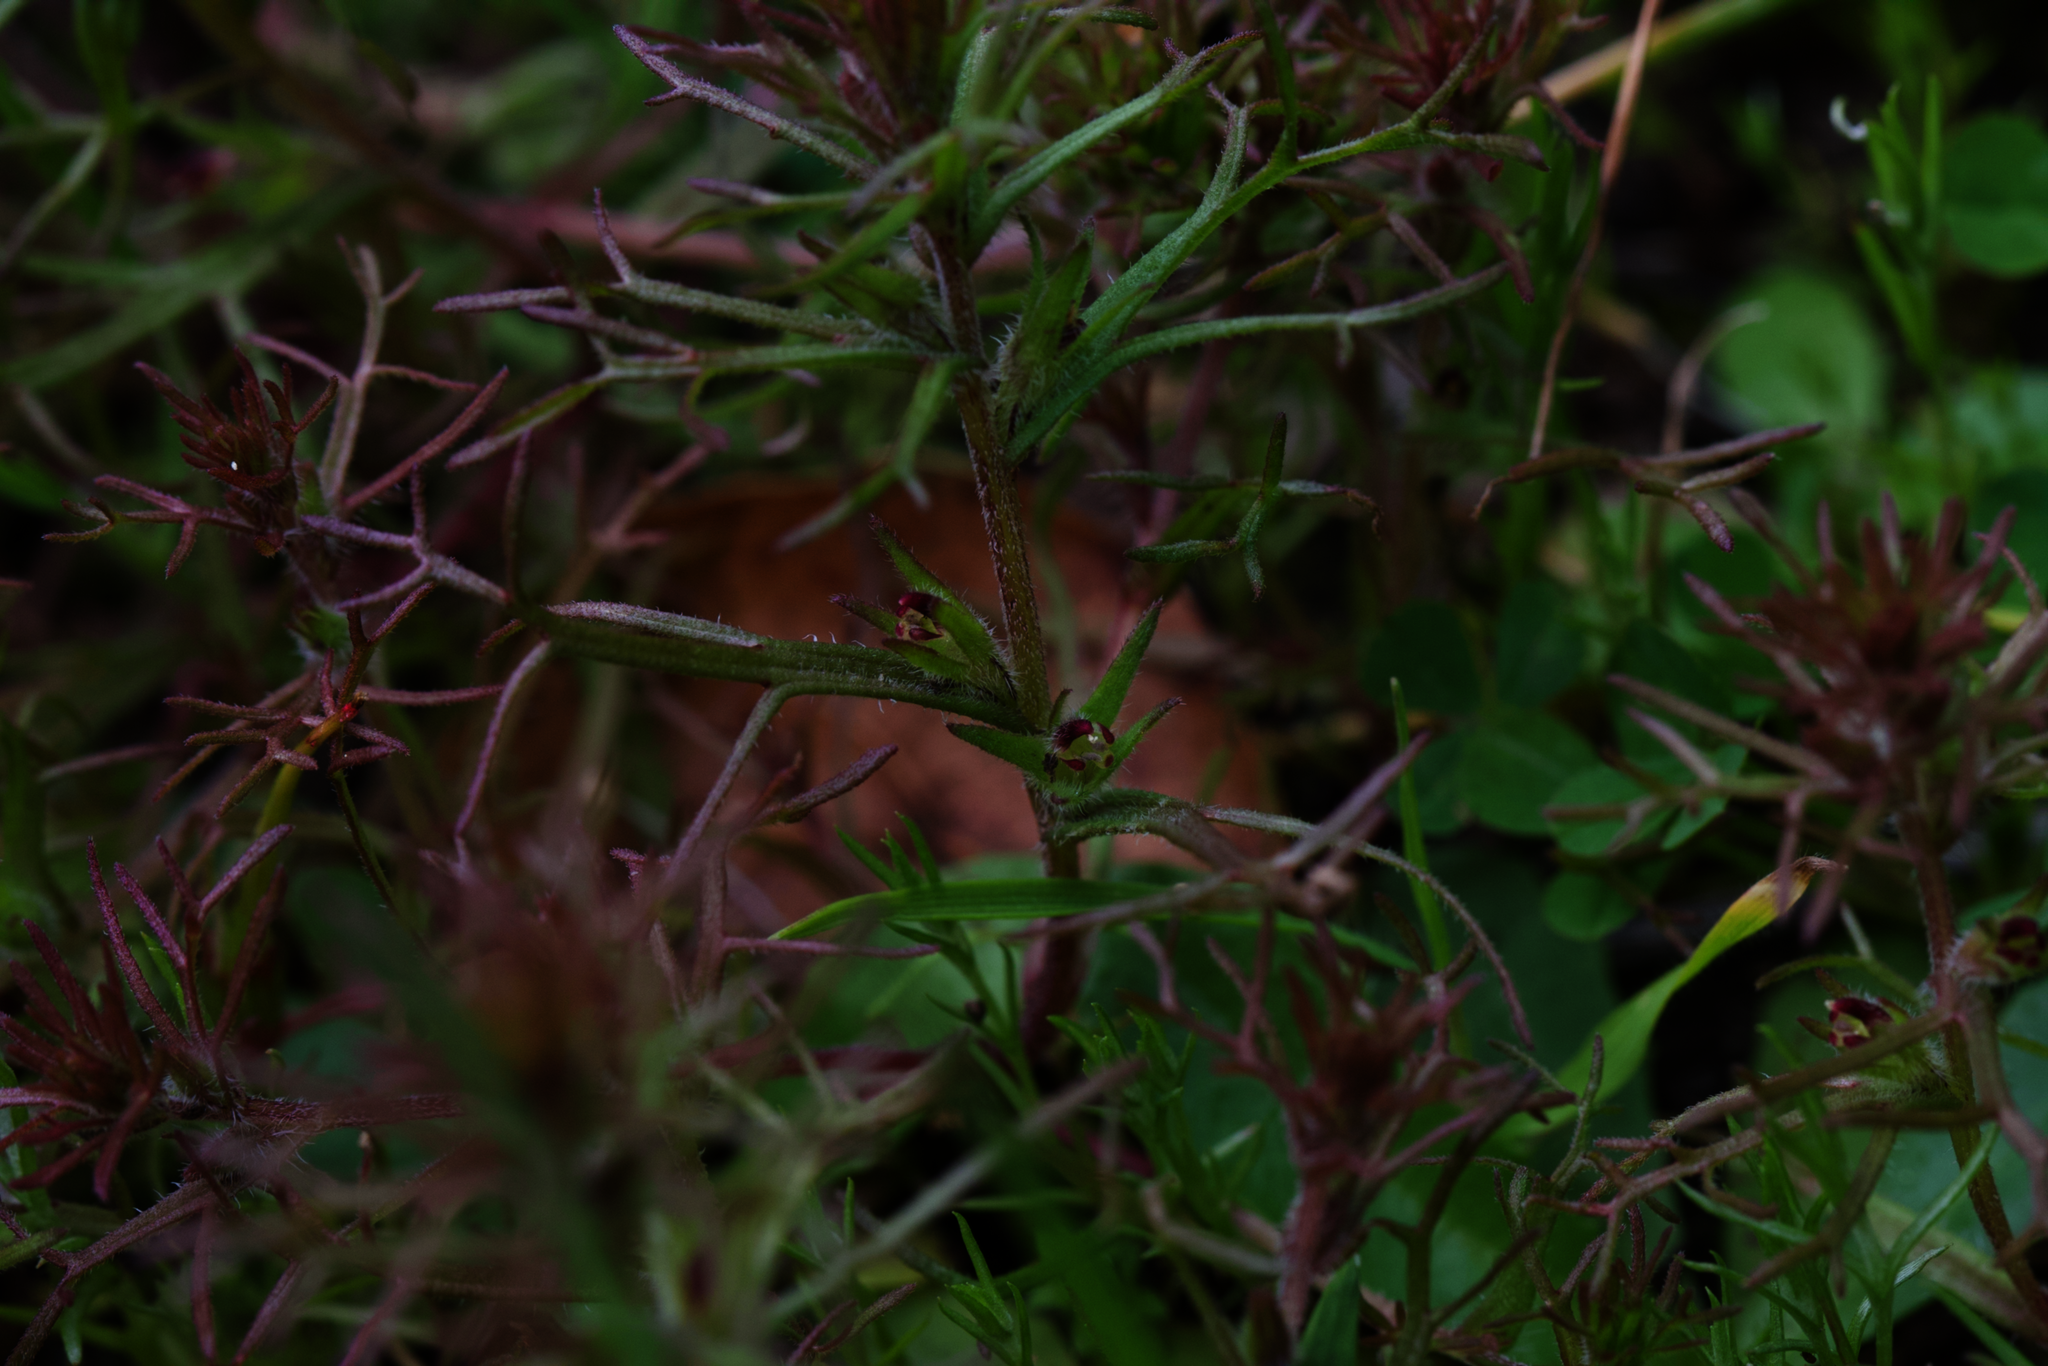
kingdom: Plantae
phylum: Tracheophyta
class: Magnoliopsida
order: Lamiales
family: Orobanchaceae
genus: Triphysaria
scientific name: Triphysaria pusilla
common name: Dwarf false owl-clover
